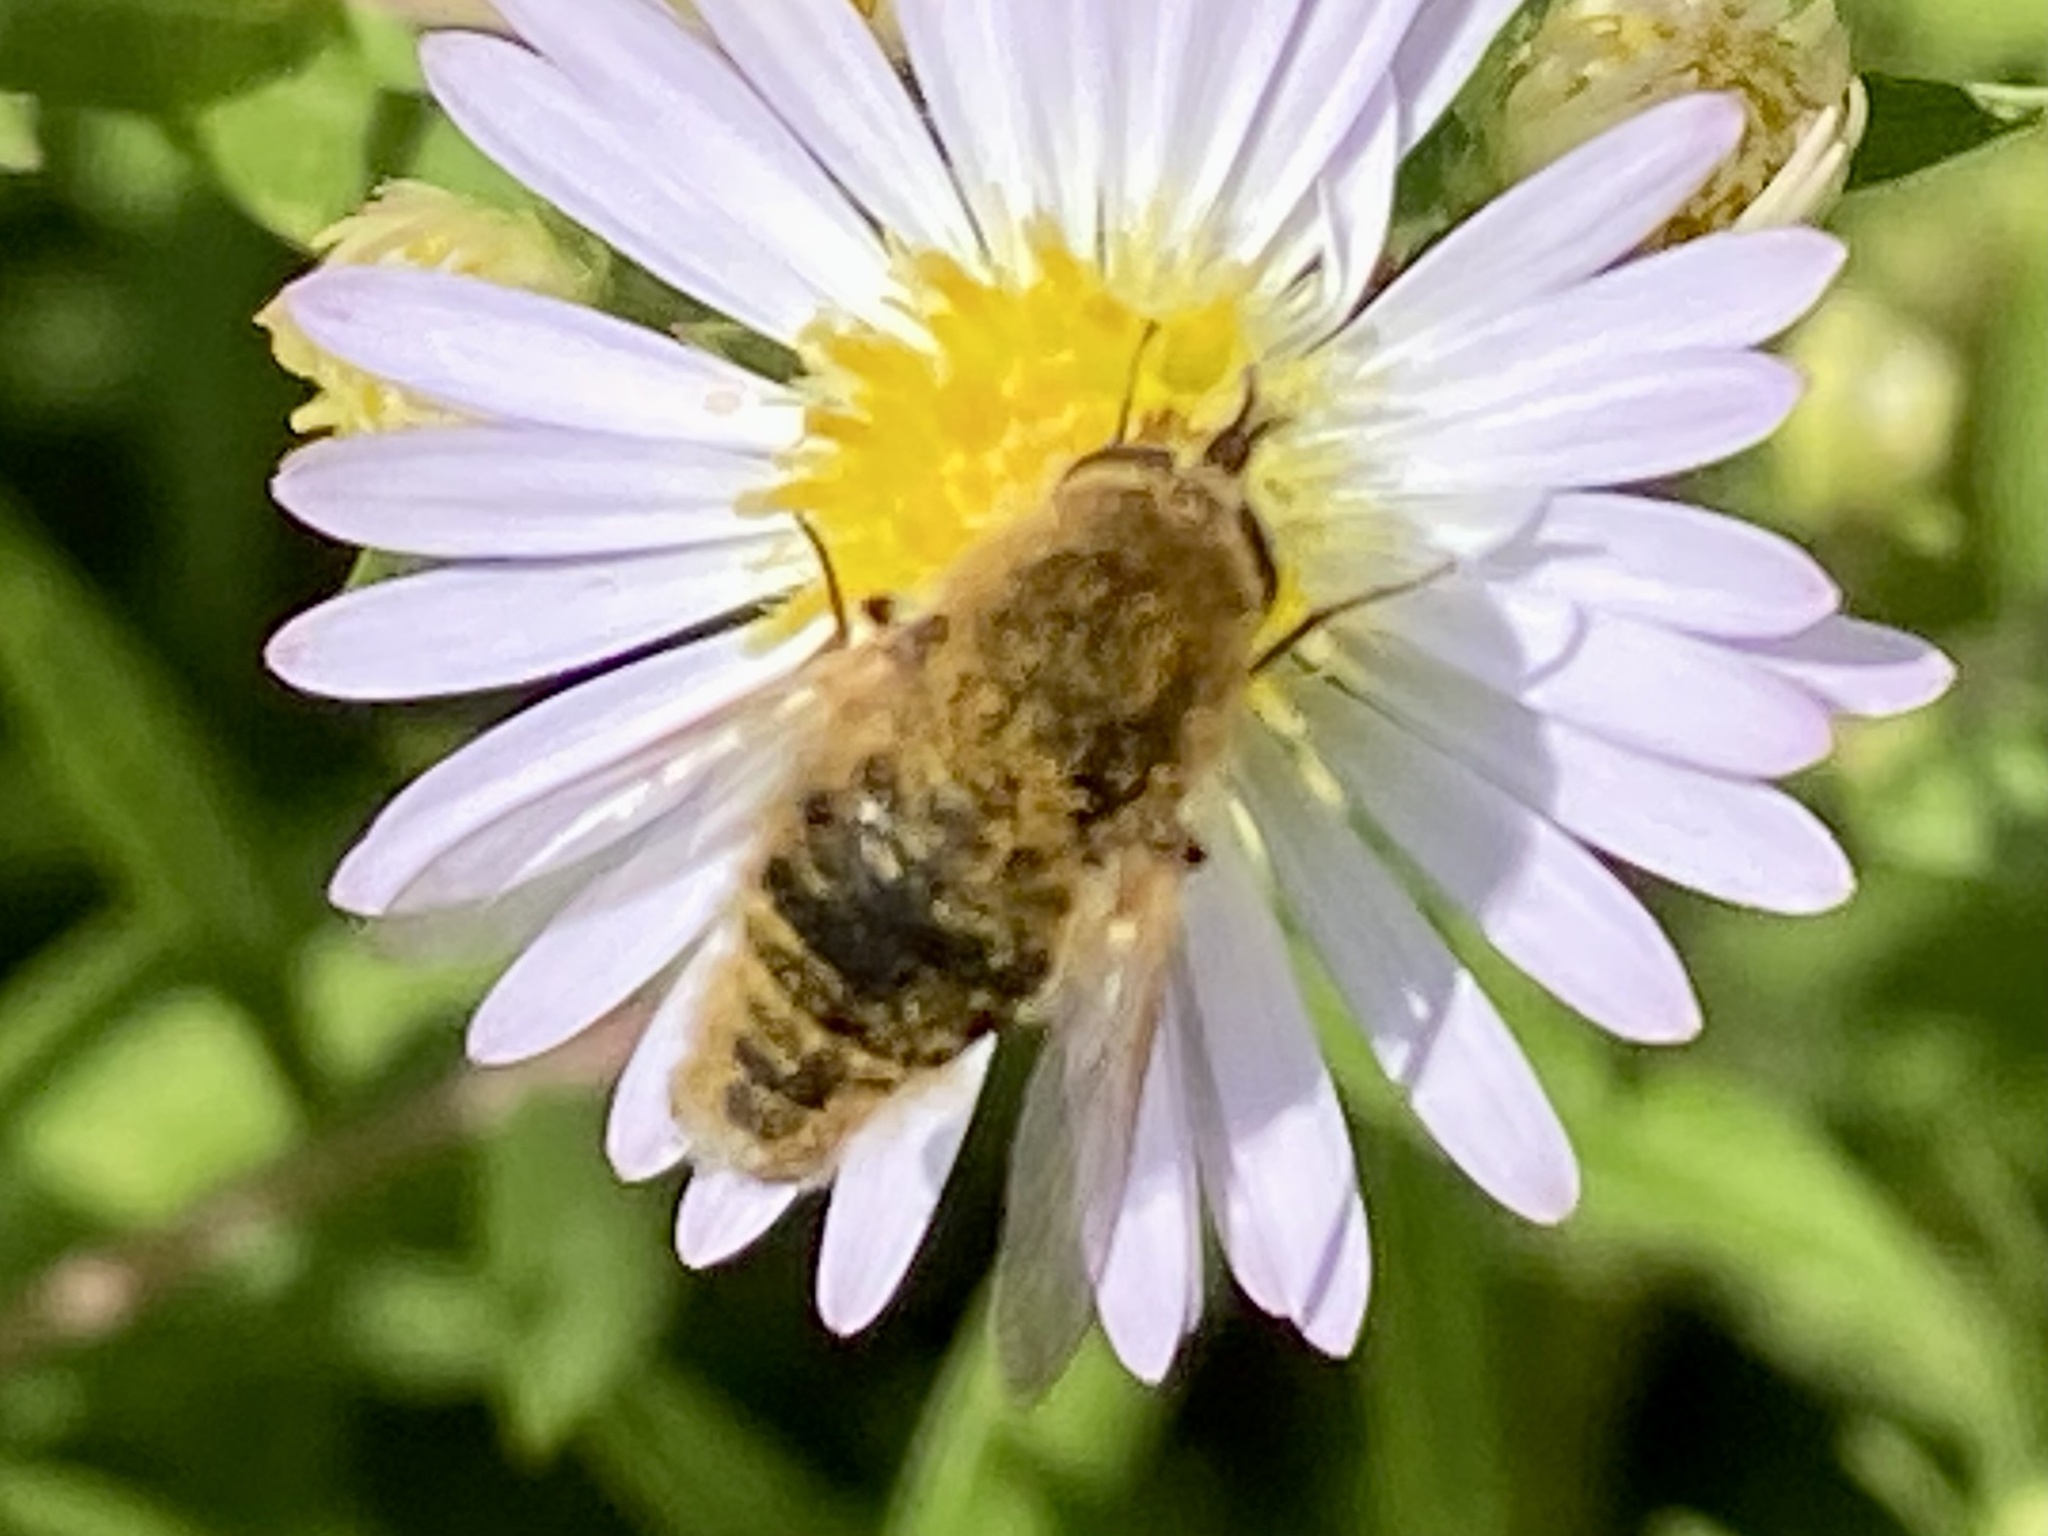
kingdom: Animalia
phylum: Arthropoda
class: Insecta
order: Diptera
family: Bombyliidae
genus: Sparnopolius
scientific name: Sparnopolius confusus
